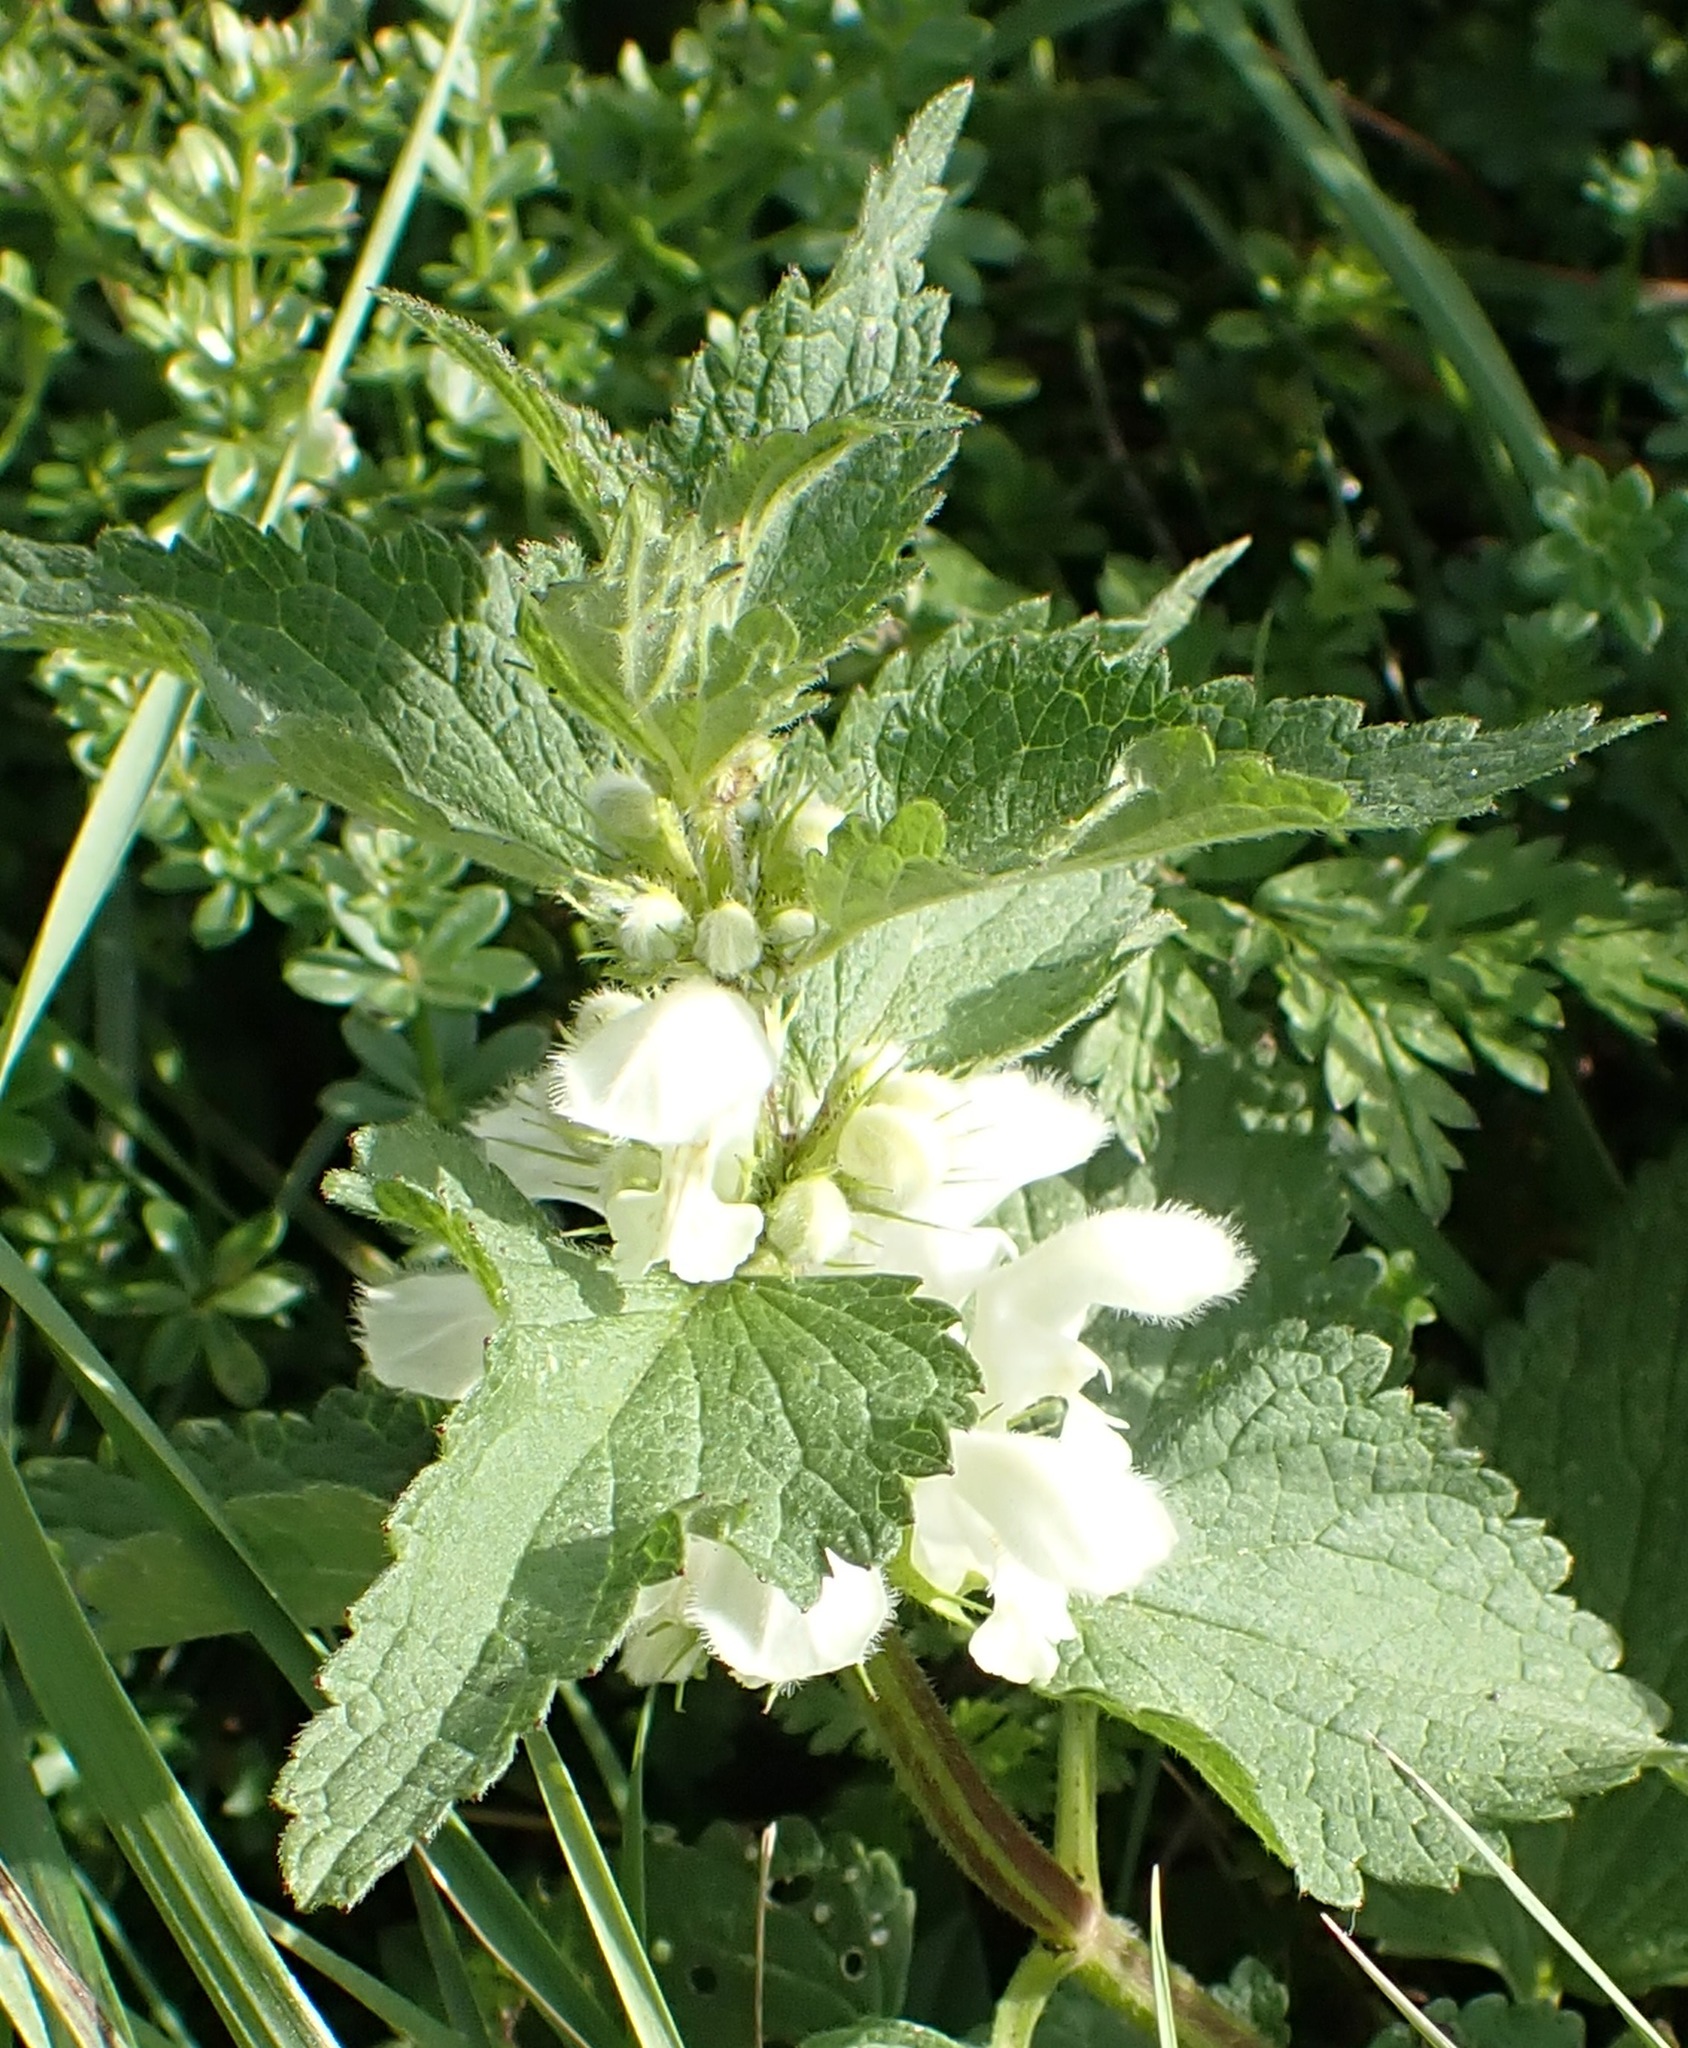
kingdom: Plantae
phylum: Tracheophyta
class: Magnoliopsida
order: Lamiales
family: Lamiaceae
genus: Lamium
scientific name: Lamium album
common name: White dead-nettle
